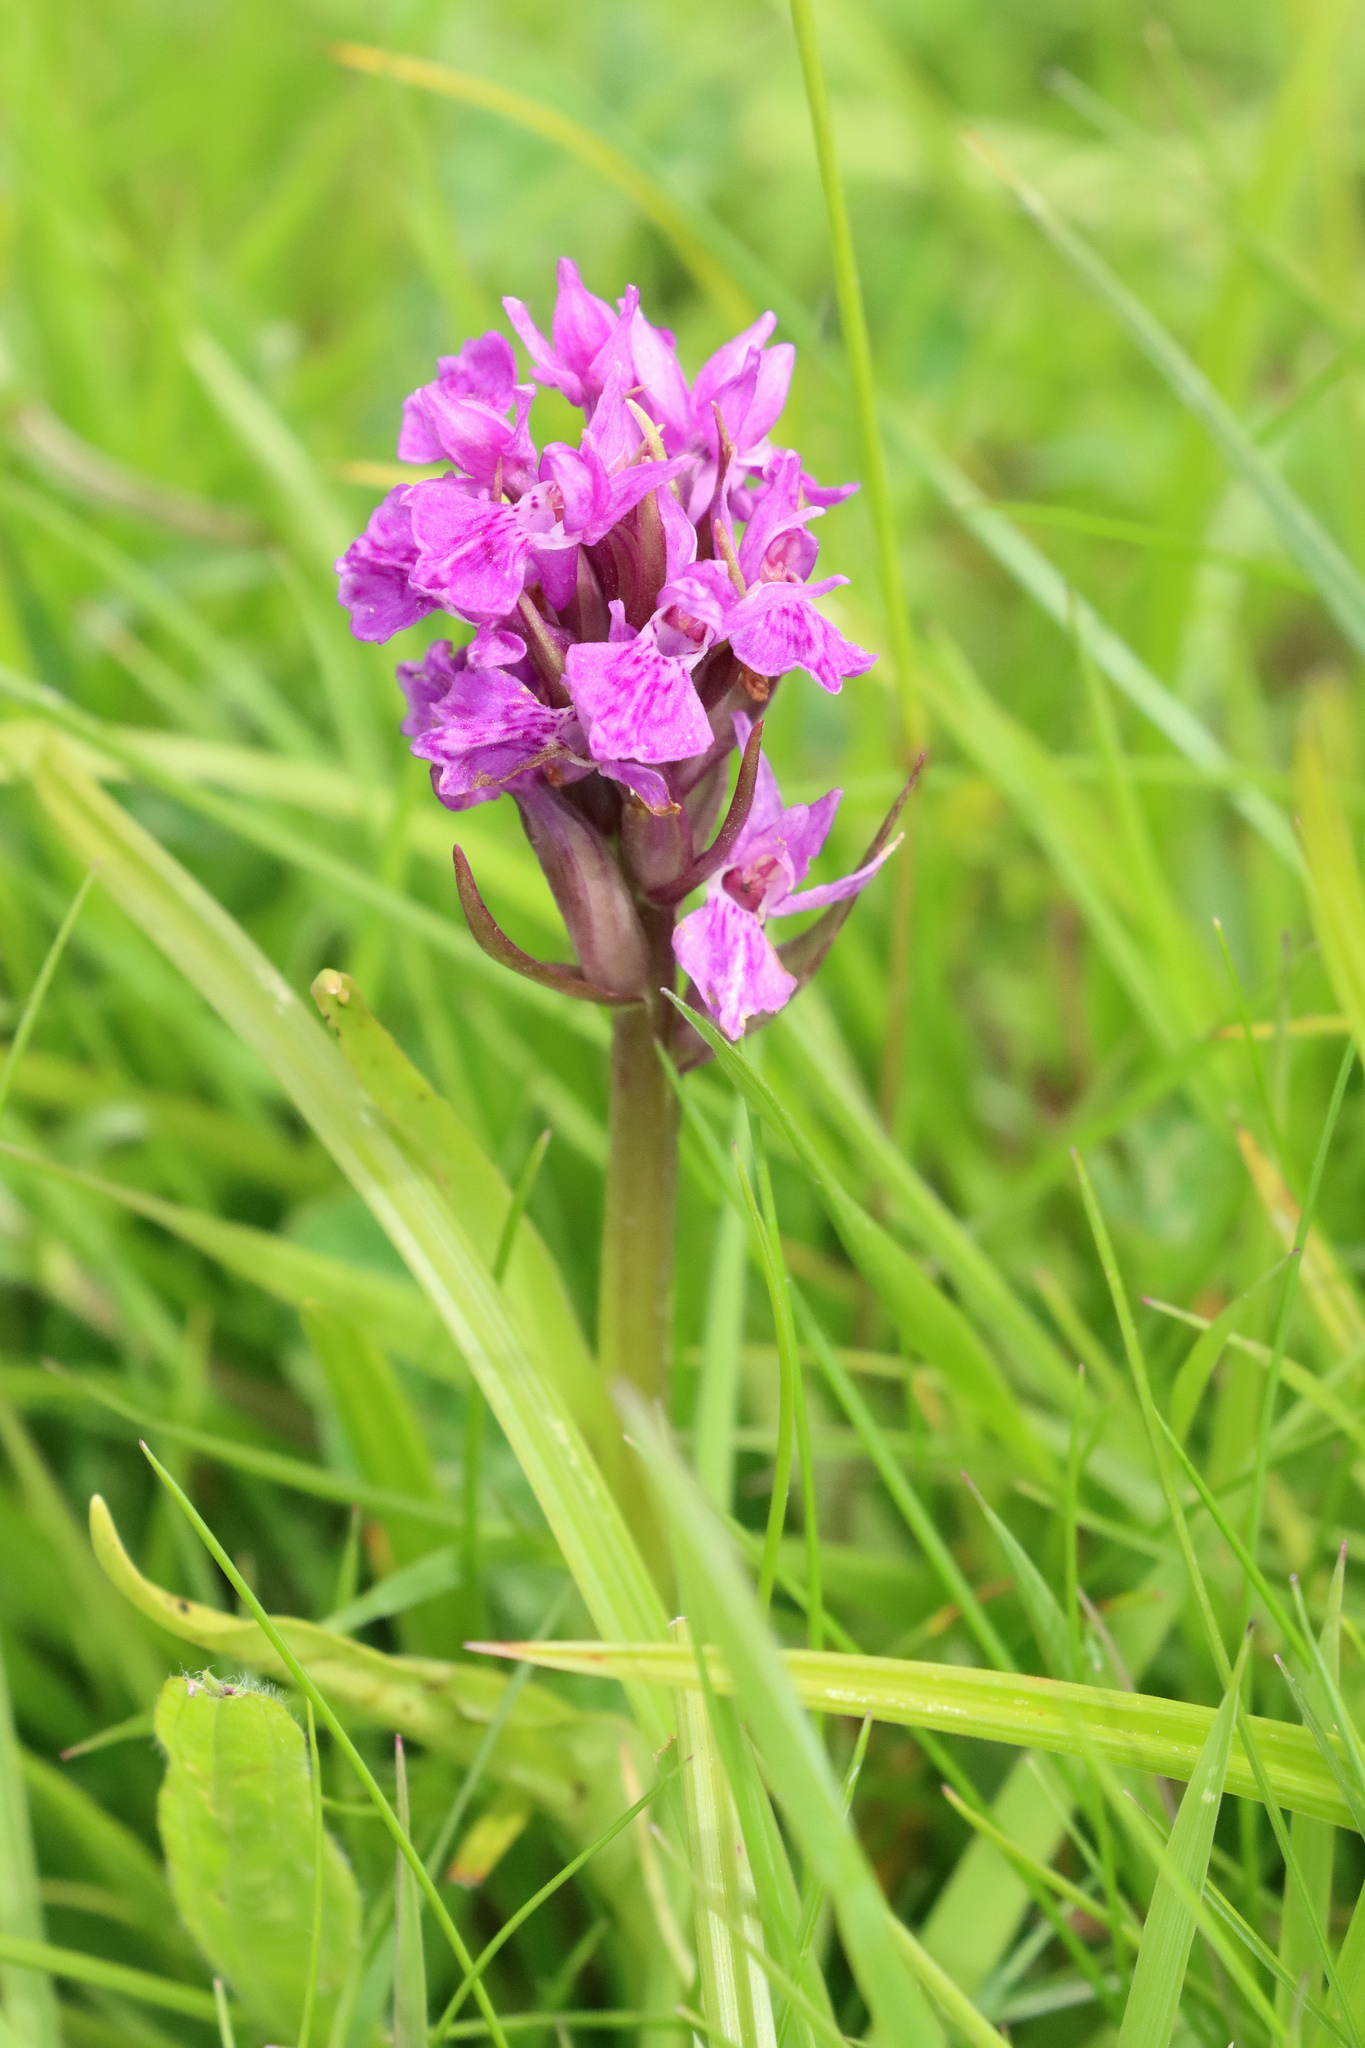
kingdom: Plantae
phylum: Tracheophyta
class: Liliopsida
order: Asparagales
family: Orchidaceae
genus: Dactylorhiza
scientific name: Dactylorhiza majalis
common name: Marsh orchid
